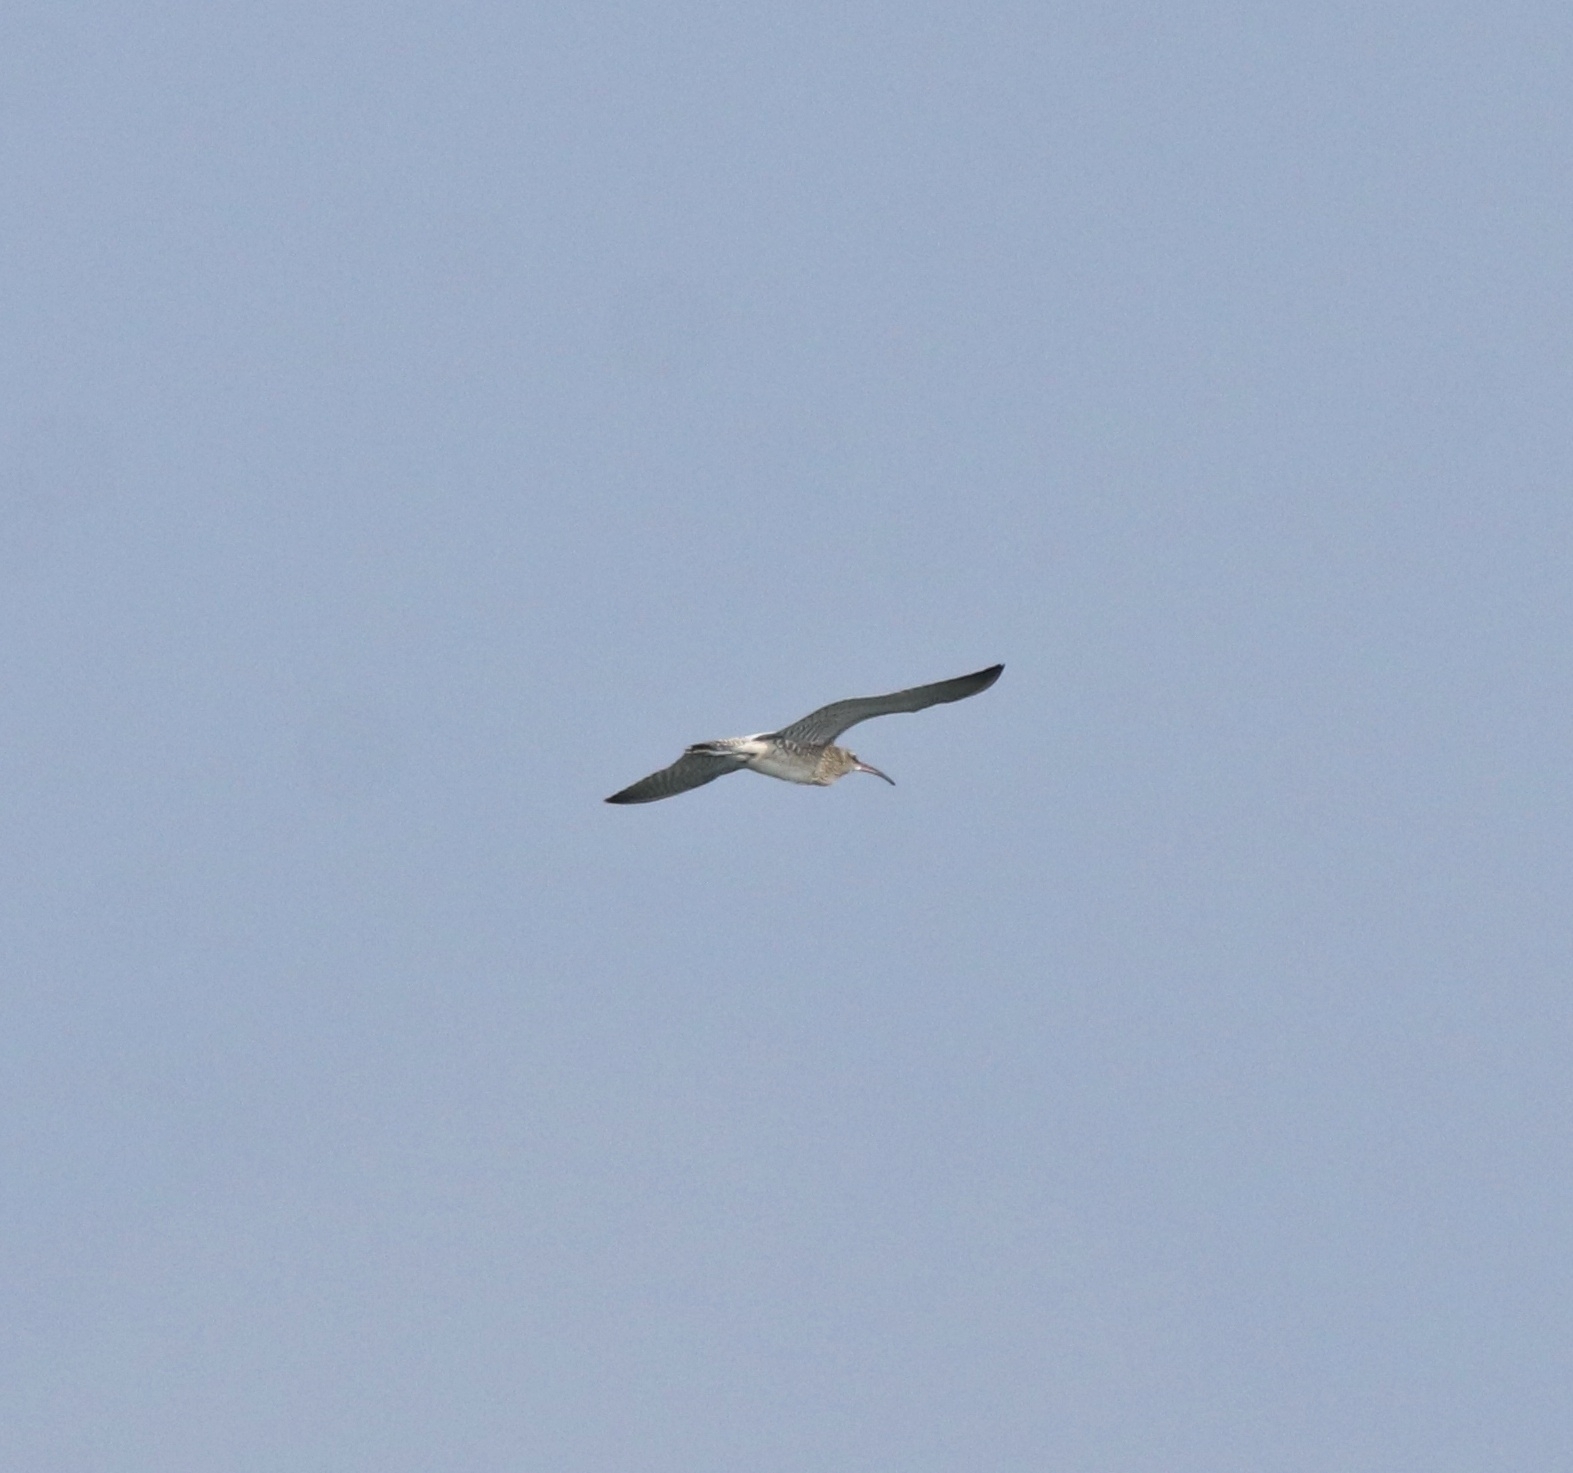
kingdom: Animalia
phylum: Chordata
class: Aves
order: Charadriiformes
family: Scolopacidae
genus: Numenius
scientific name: Numenius phaeopus
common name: Whimbrel
